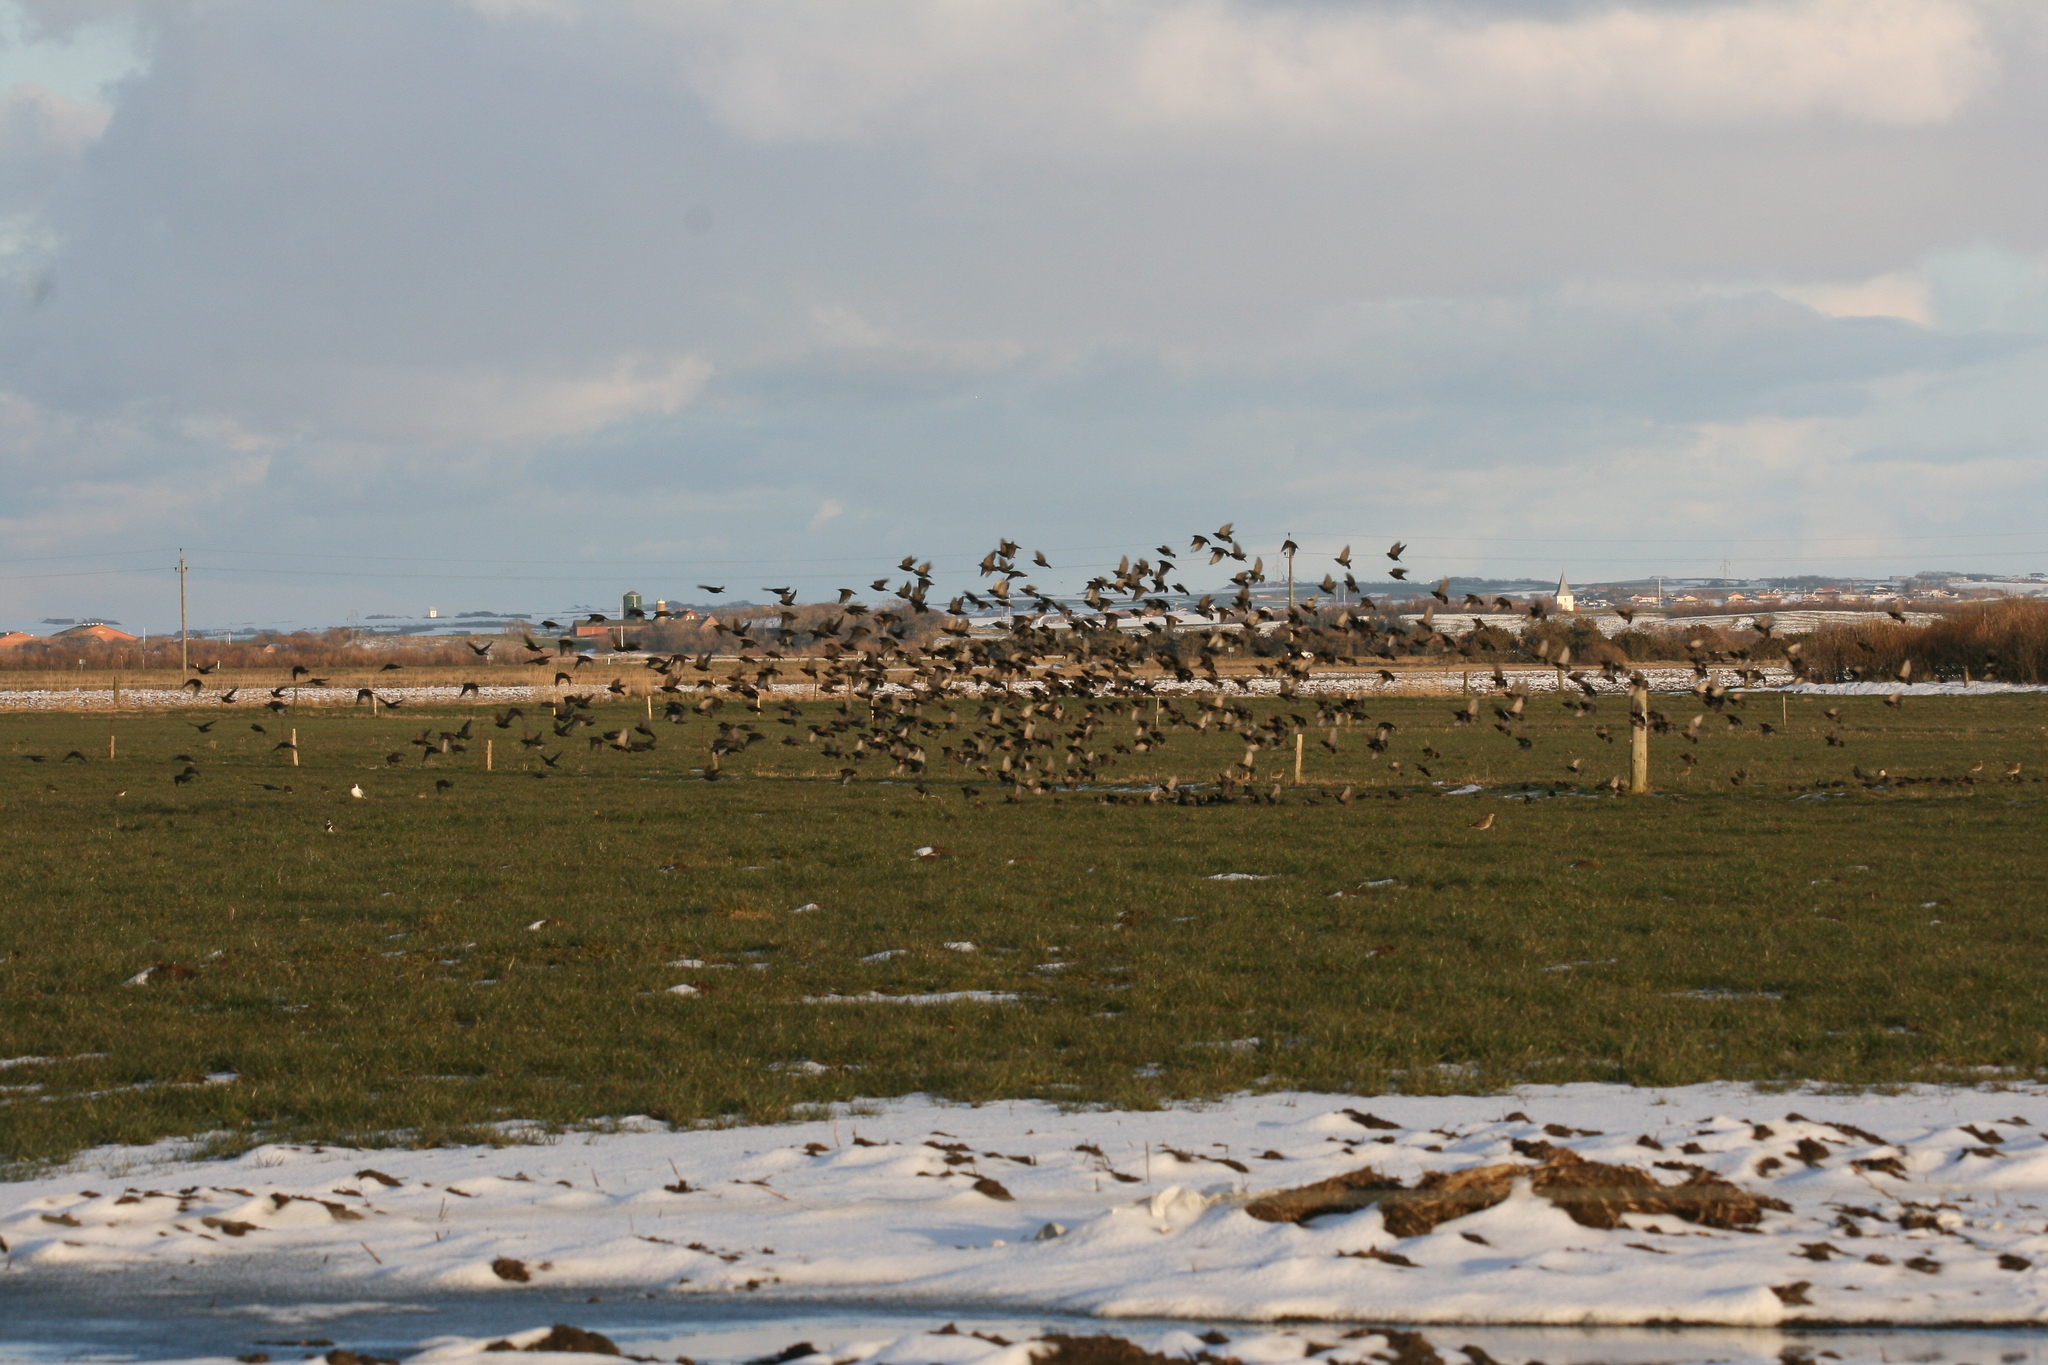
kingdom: Animalia
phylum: Chordata
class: Aves
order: Passeriformes
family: Sturnidae
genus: Sturnus
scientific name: Sturnus vulgaris
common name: Common starling
